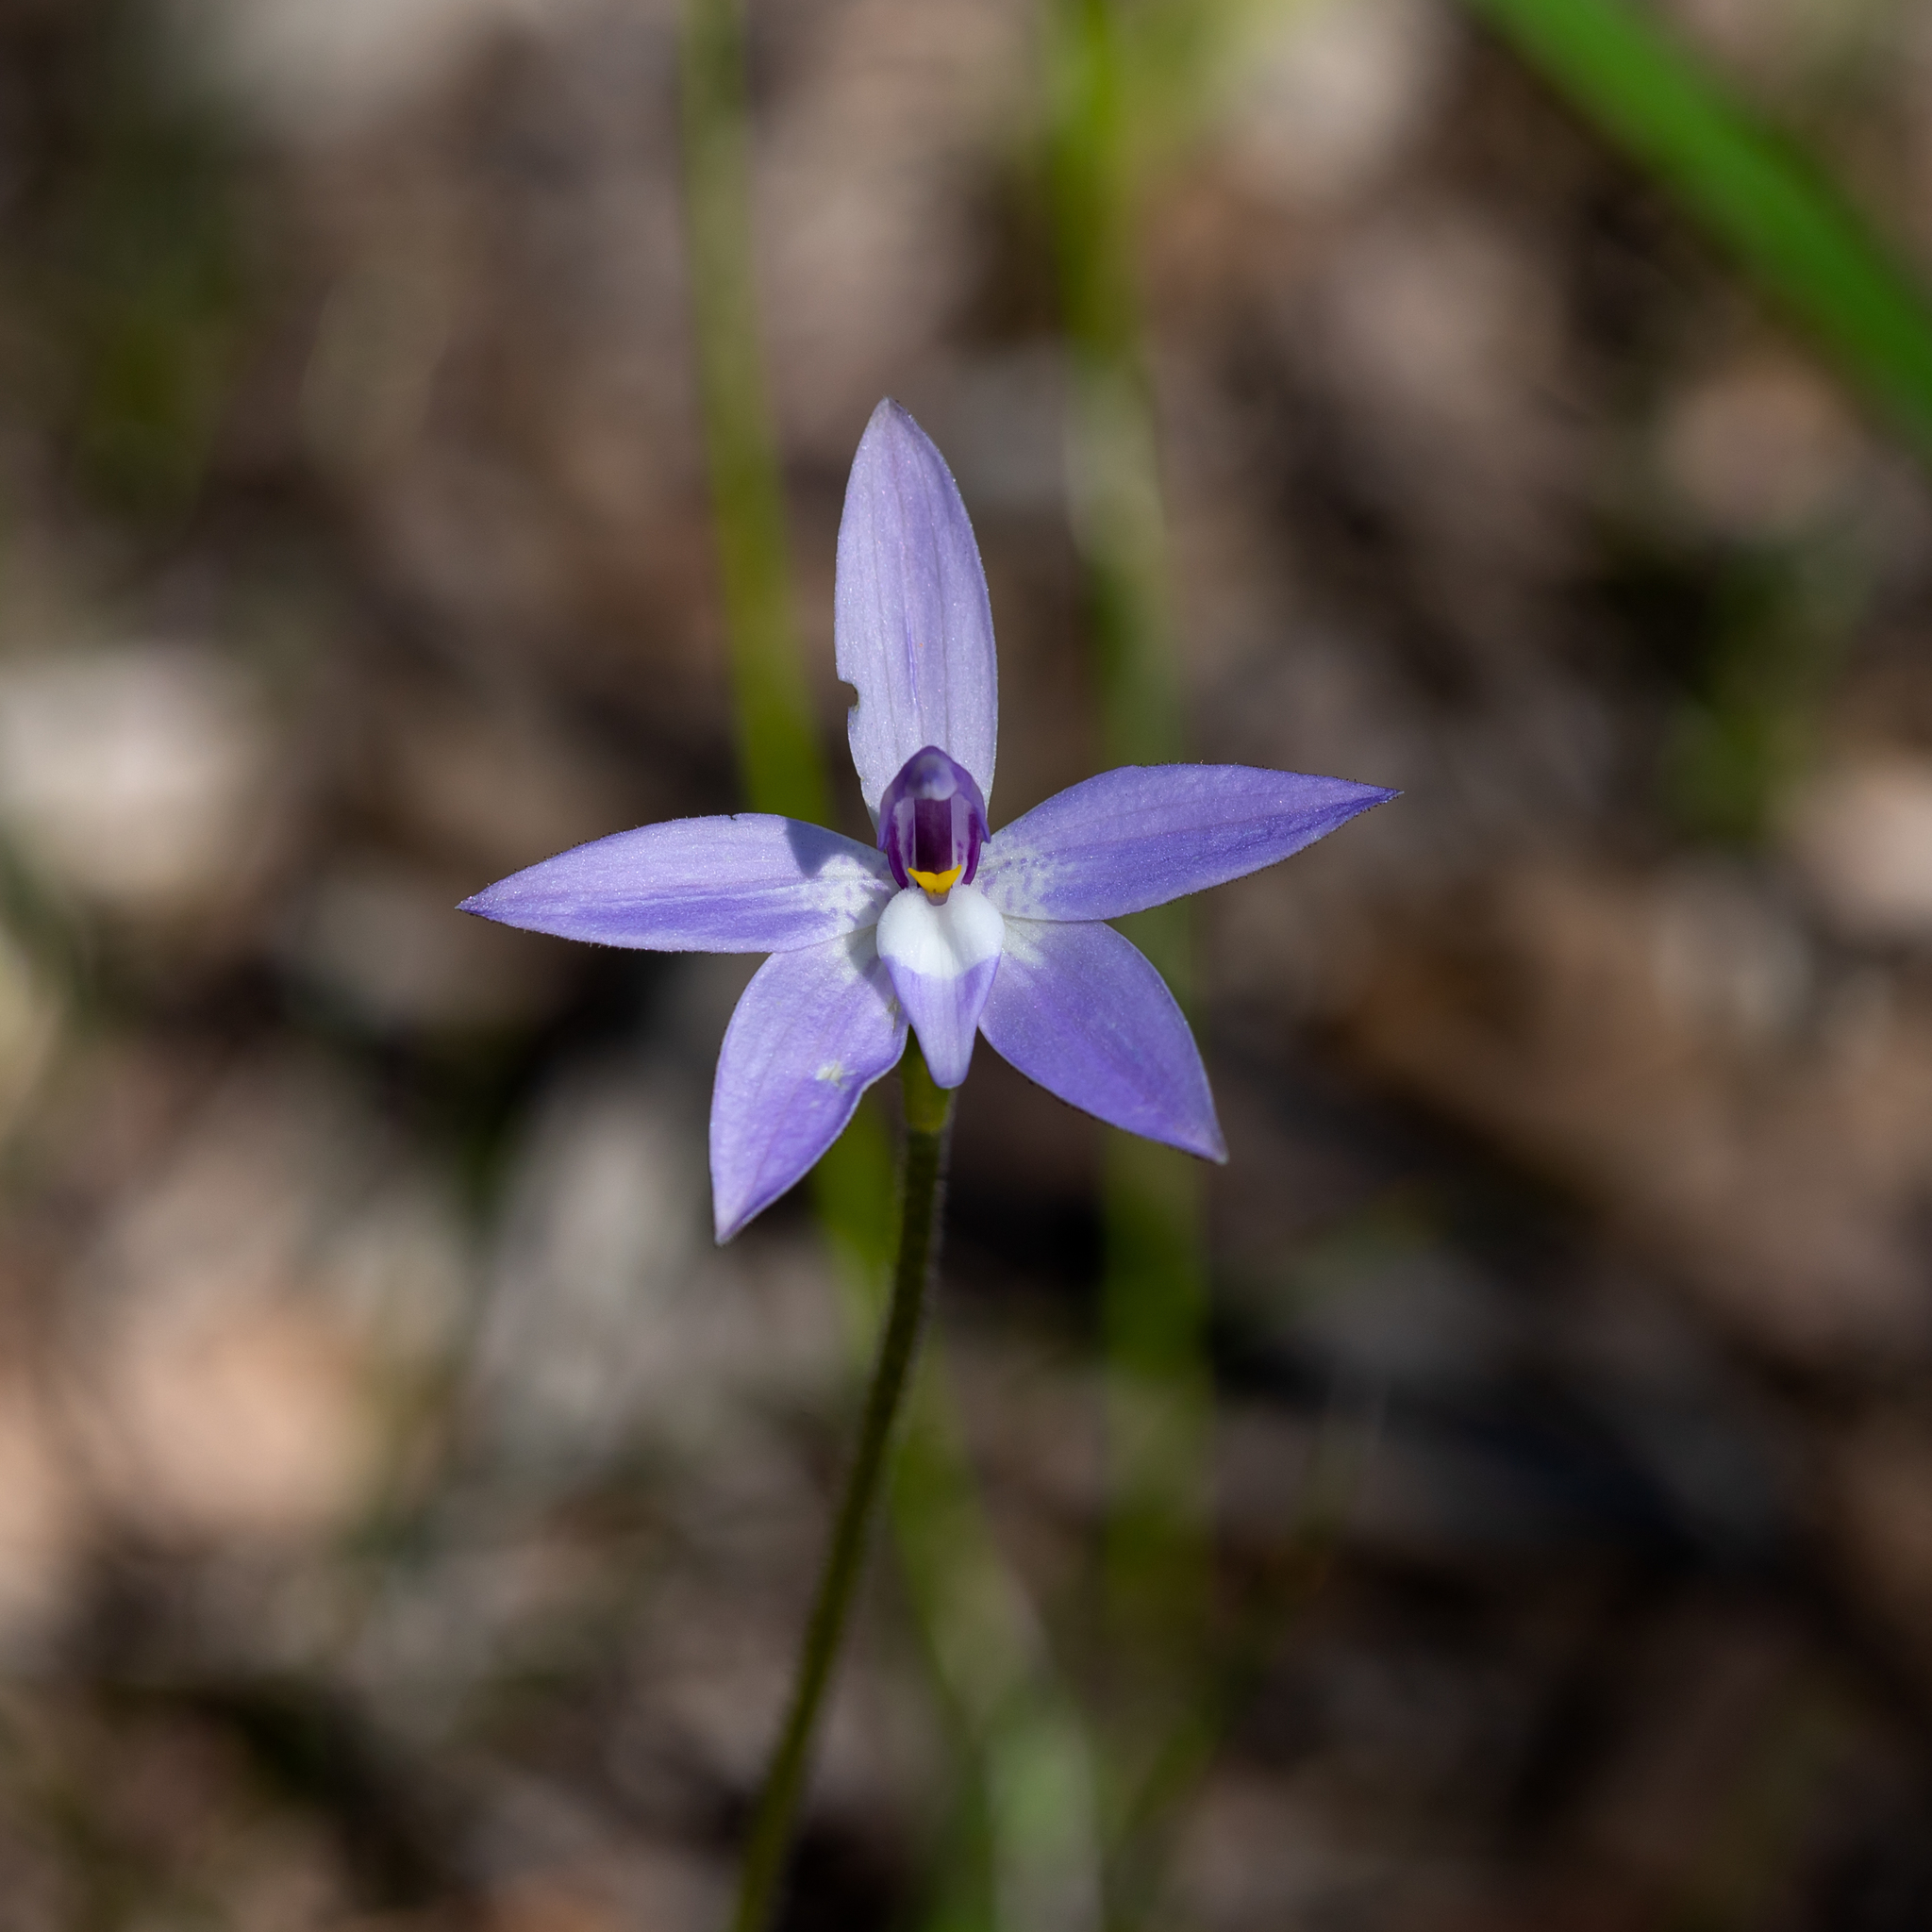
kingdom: Plantae
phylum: Tracheophyta
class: Liliopsida
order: Asparagales
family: Orchidaceae
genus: Caladenia
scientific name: Caladenia major
